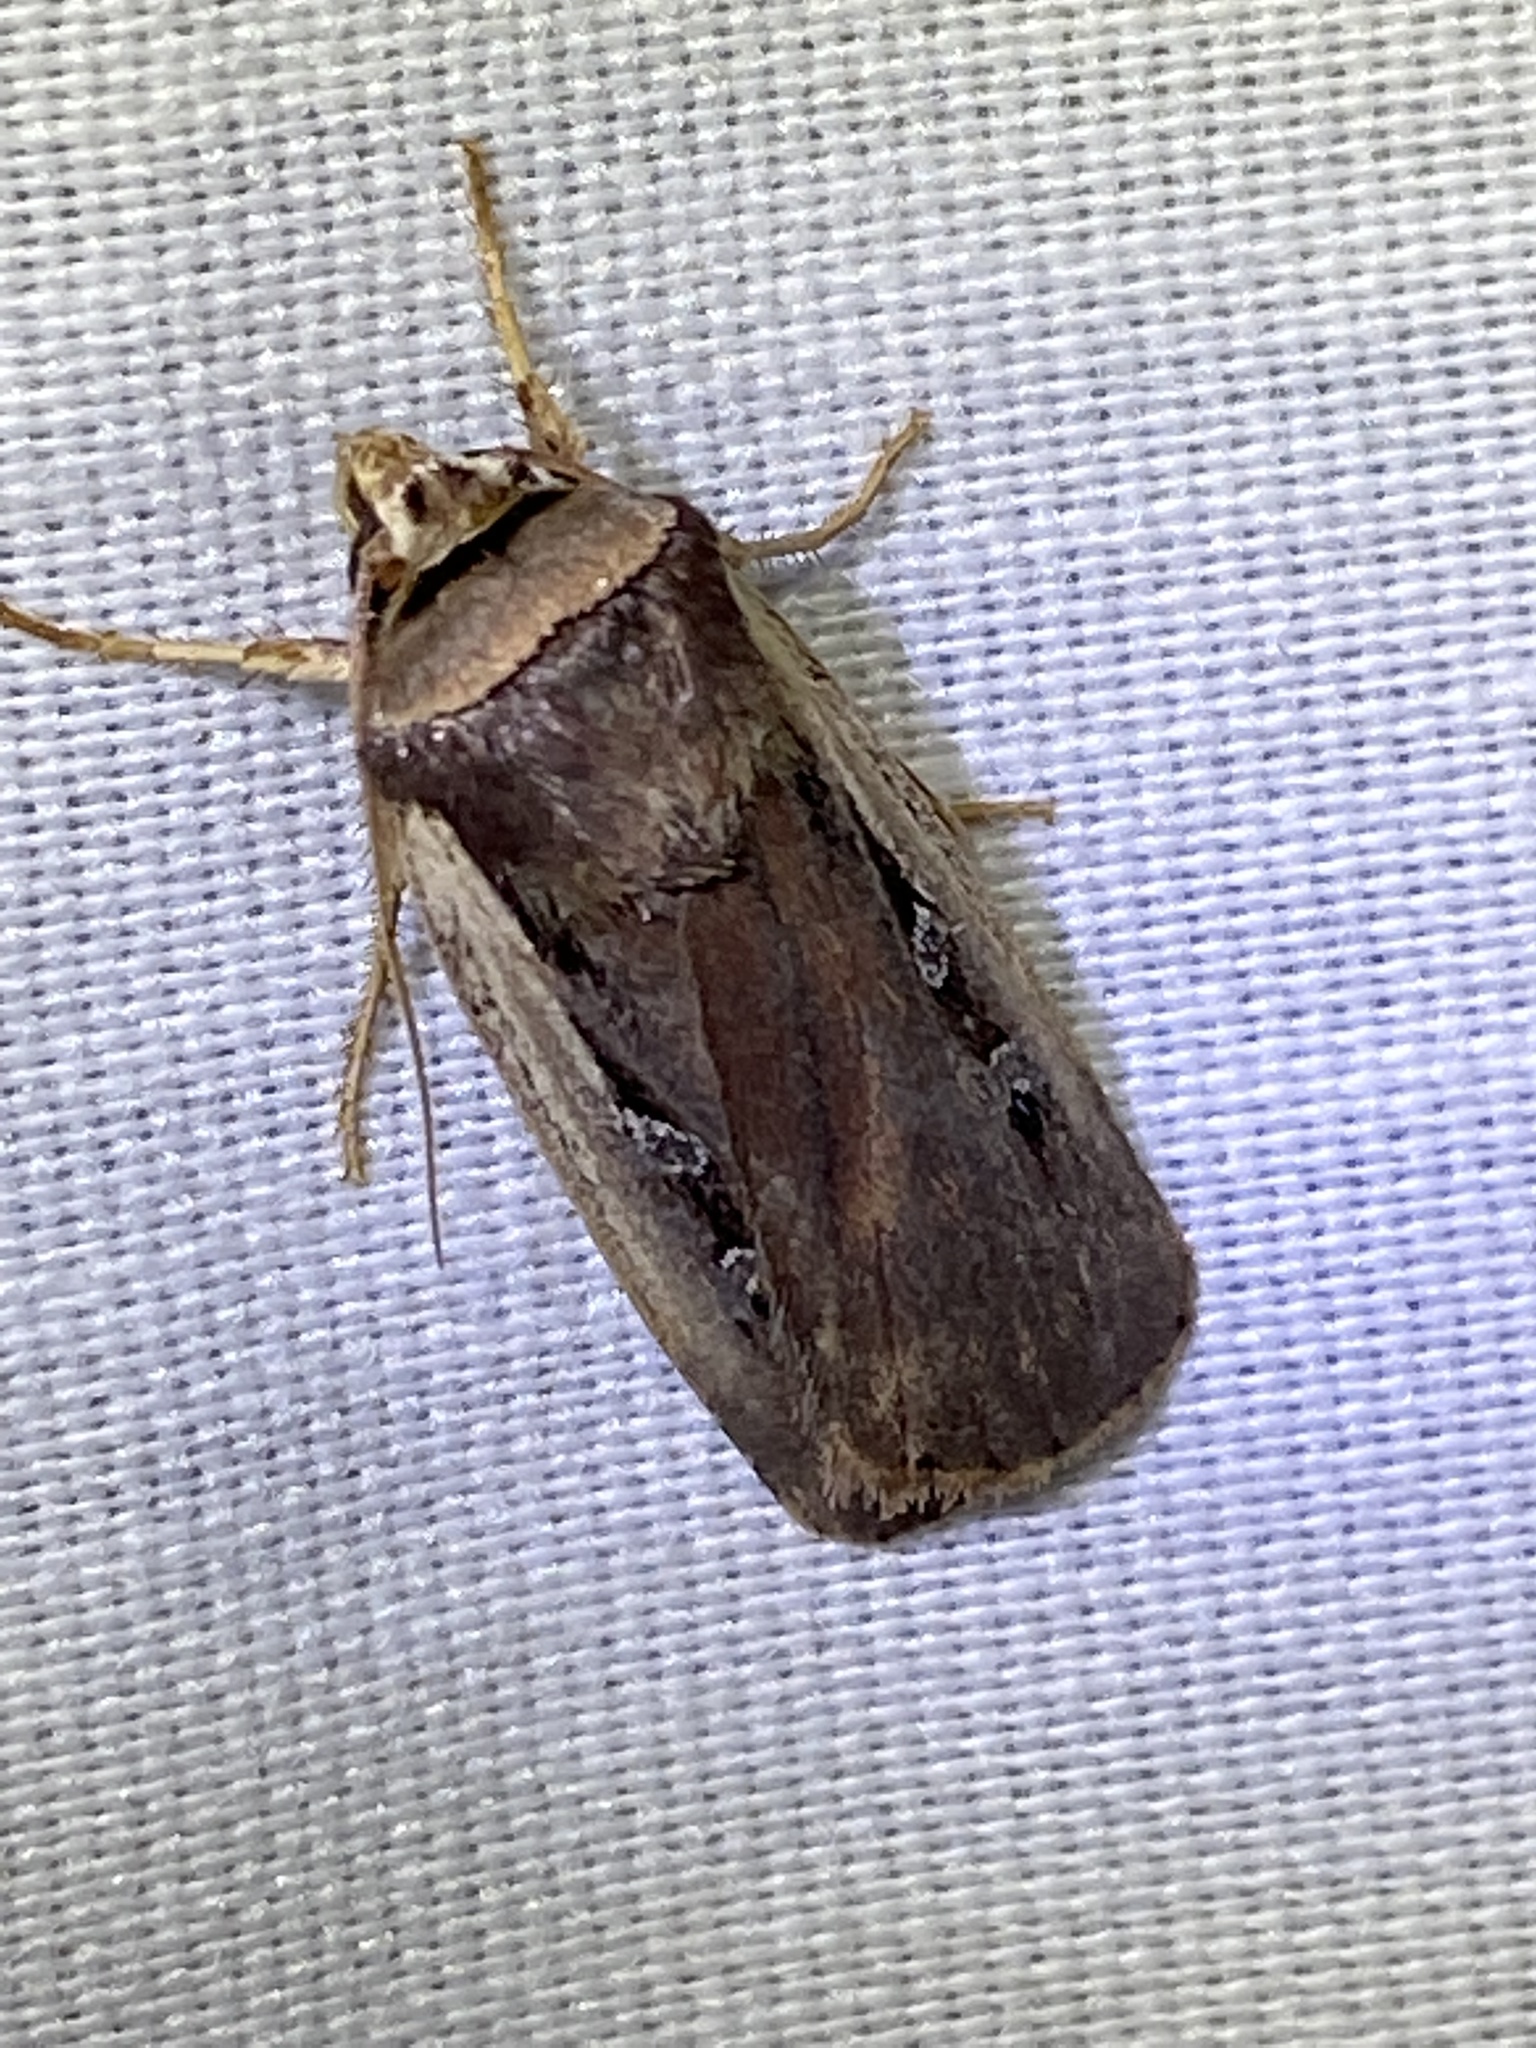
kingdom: Animalia
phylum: Arthropoda
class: Insecta
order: Lepidoptera
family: Noctuidae
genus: Ochropleura
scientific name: Ochropleura implecta
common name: Flame-shouldered dart
